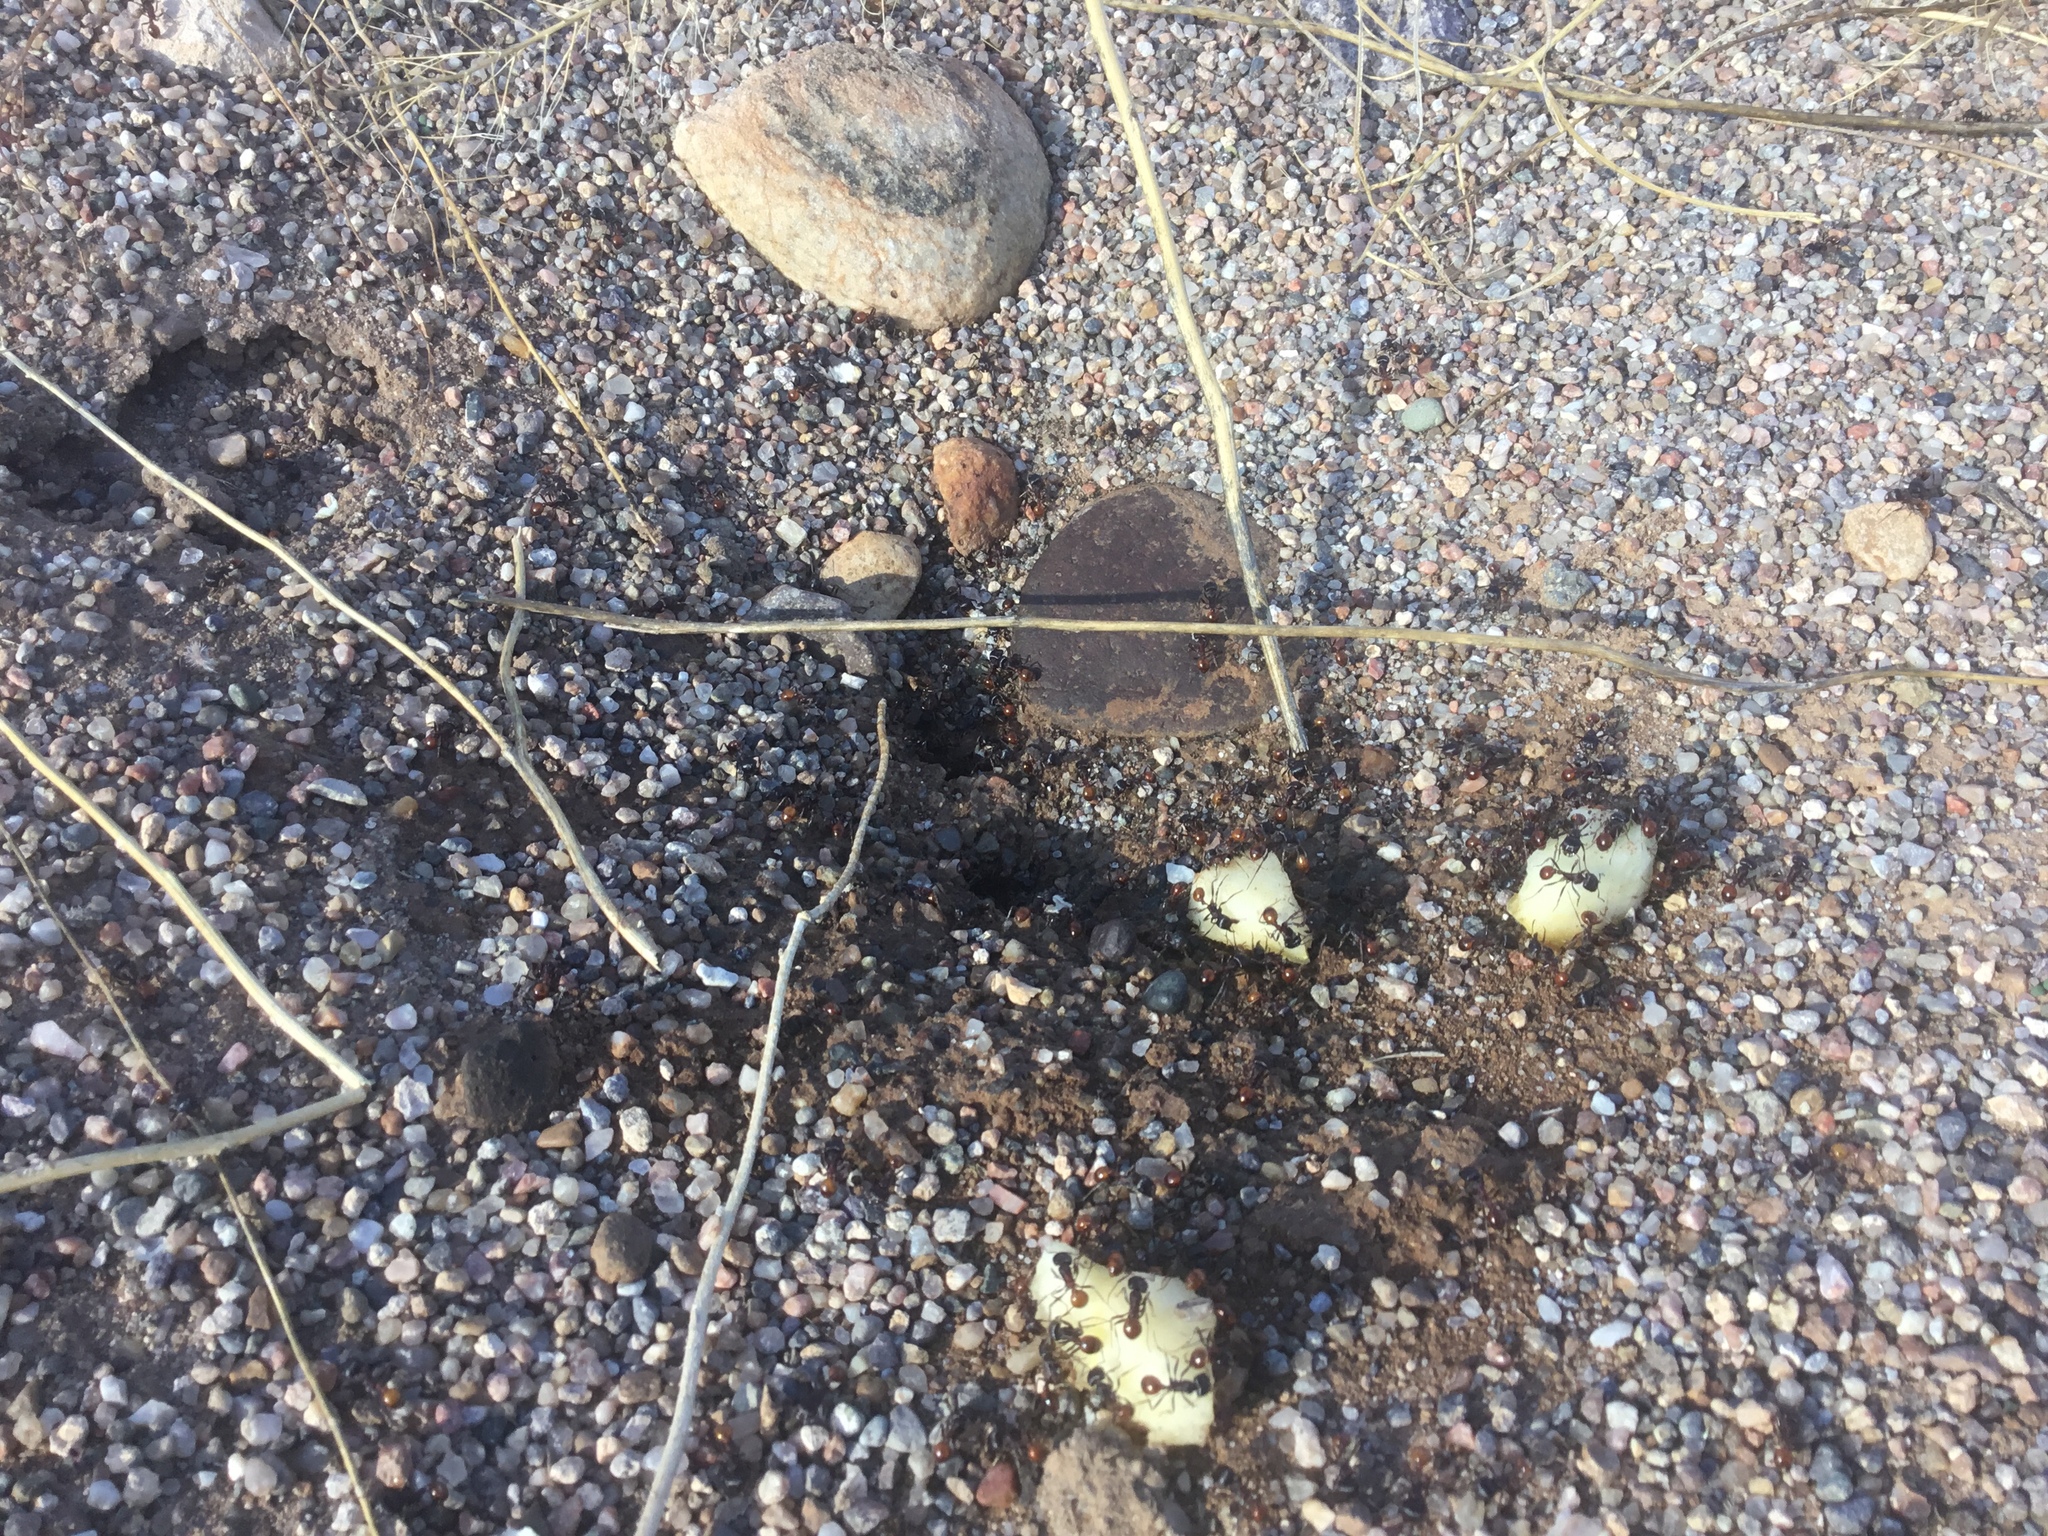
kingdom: Animalia
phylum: Arthropoda
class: Insecta
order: Hymenoptera
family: Formicidae
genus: Pogonomyrmex
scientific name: Pogonomyrmex rugosus
